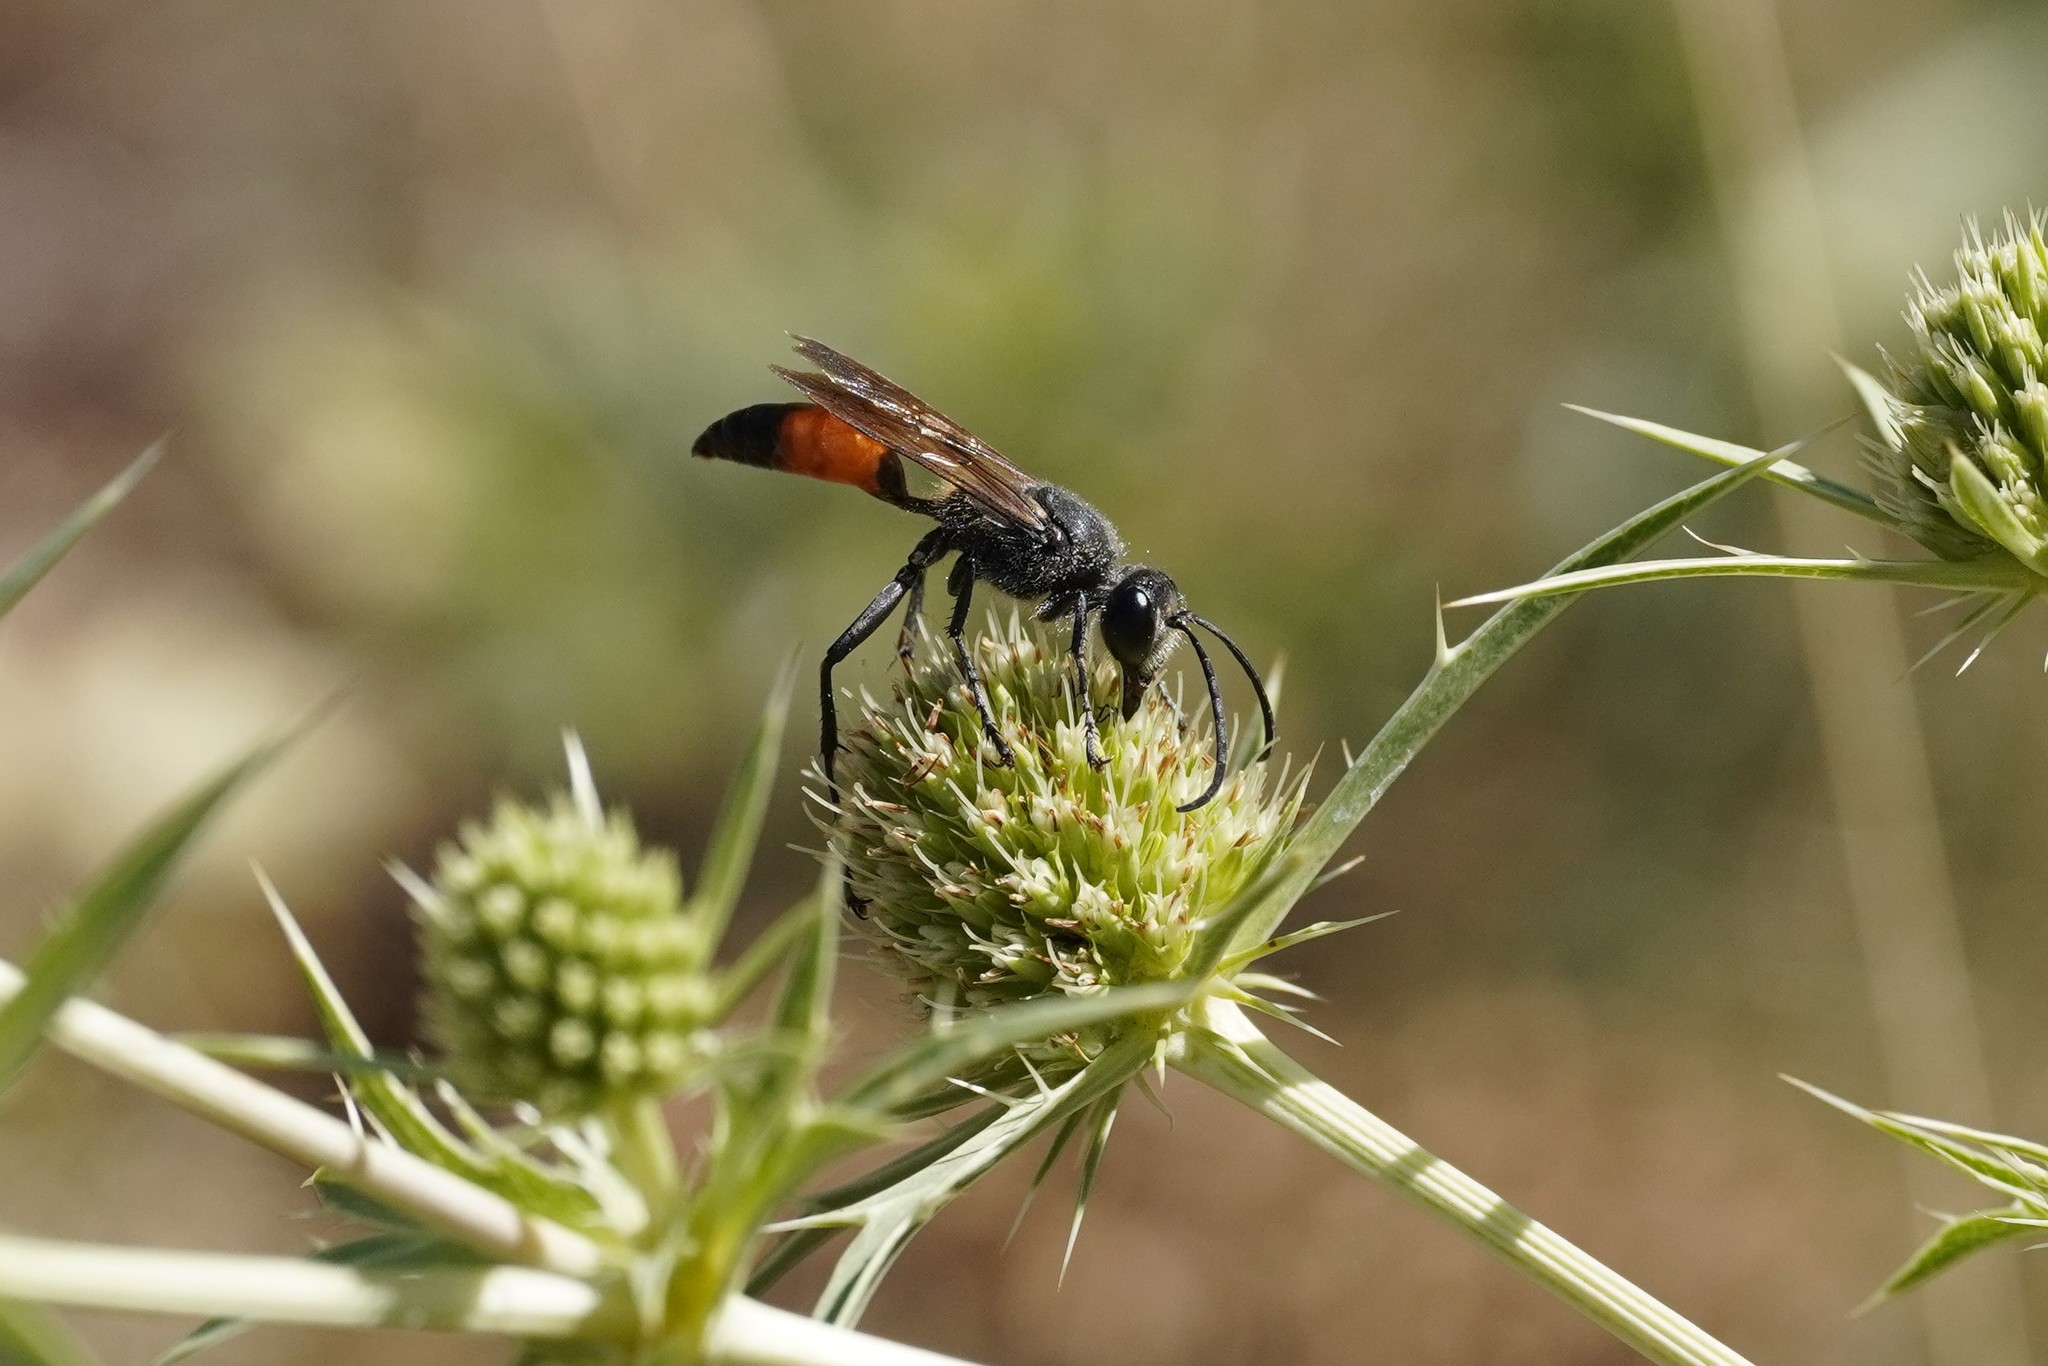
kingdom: Animalia
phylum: Arthropoda
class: Insecta
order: Hymenoptera
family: Sphecidae
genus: Sphex
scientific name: Sphex funerarius
